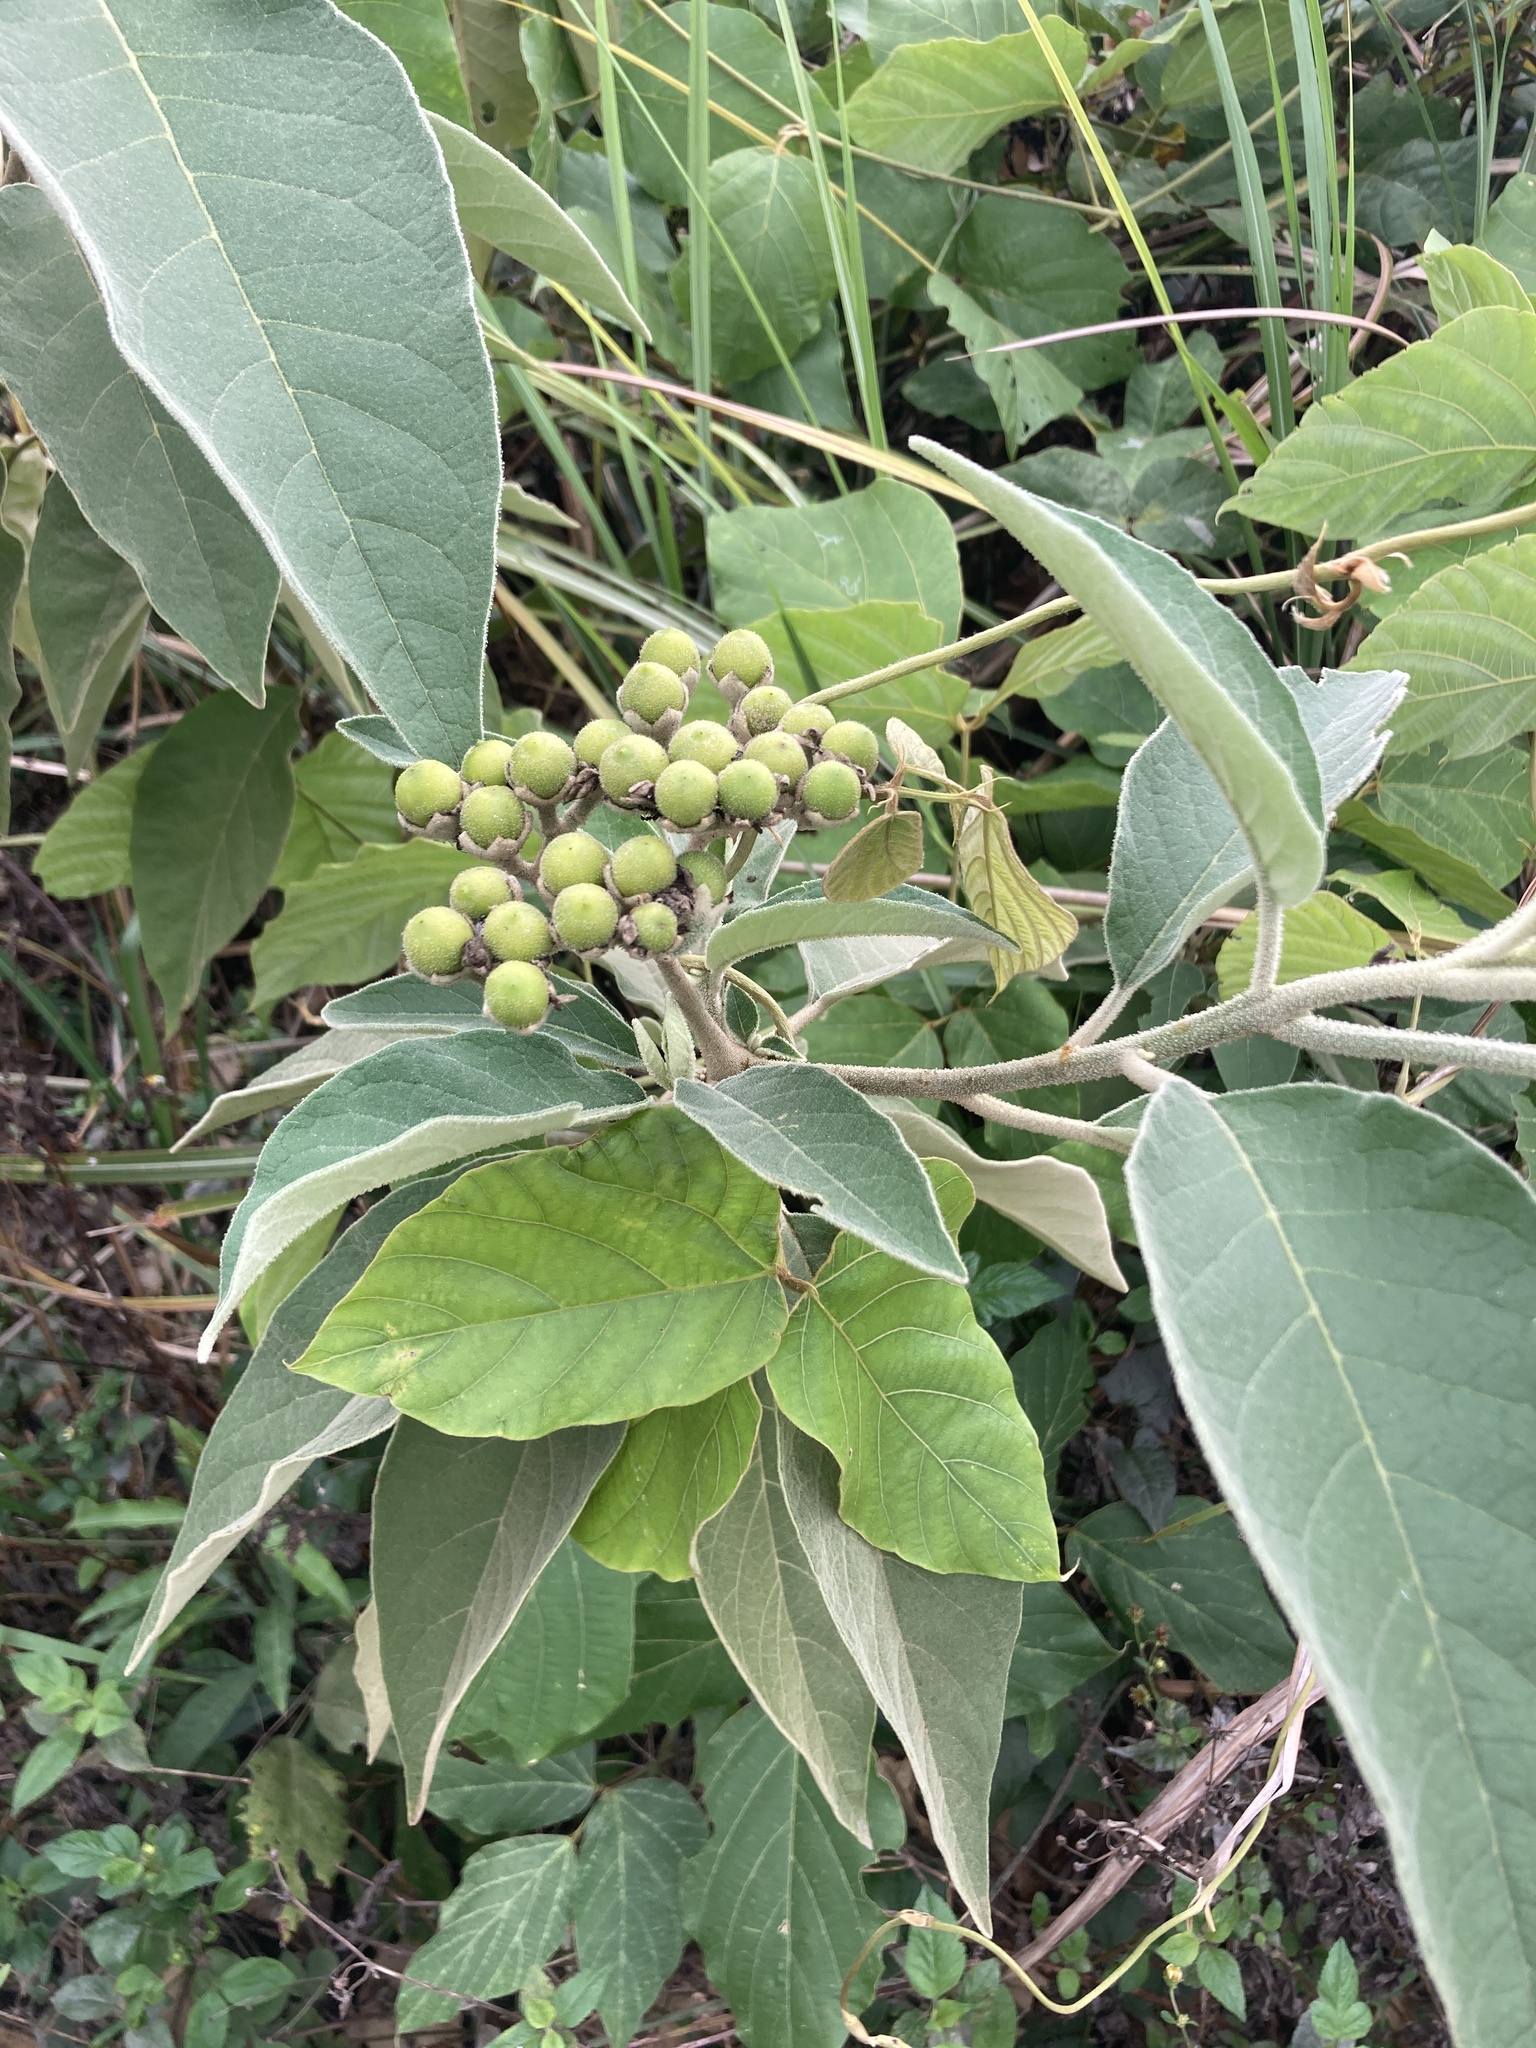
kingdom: Plantae
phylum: Tracheophyta
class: Magnoliopsida
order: Solanales
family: Solanaceae
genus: Solanum
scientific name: Solanum erianthum
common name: Tobacco-tree
